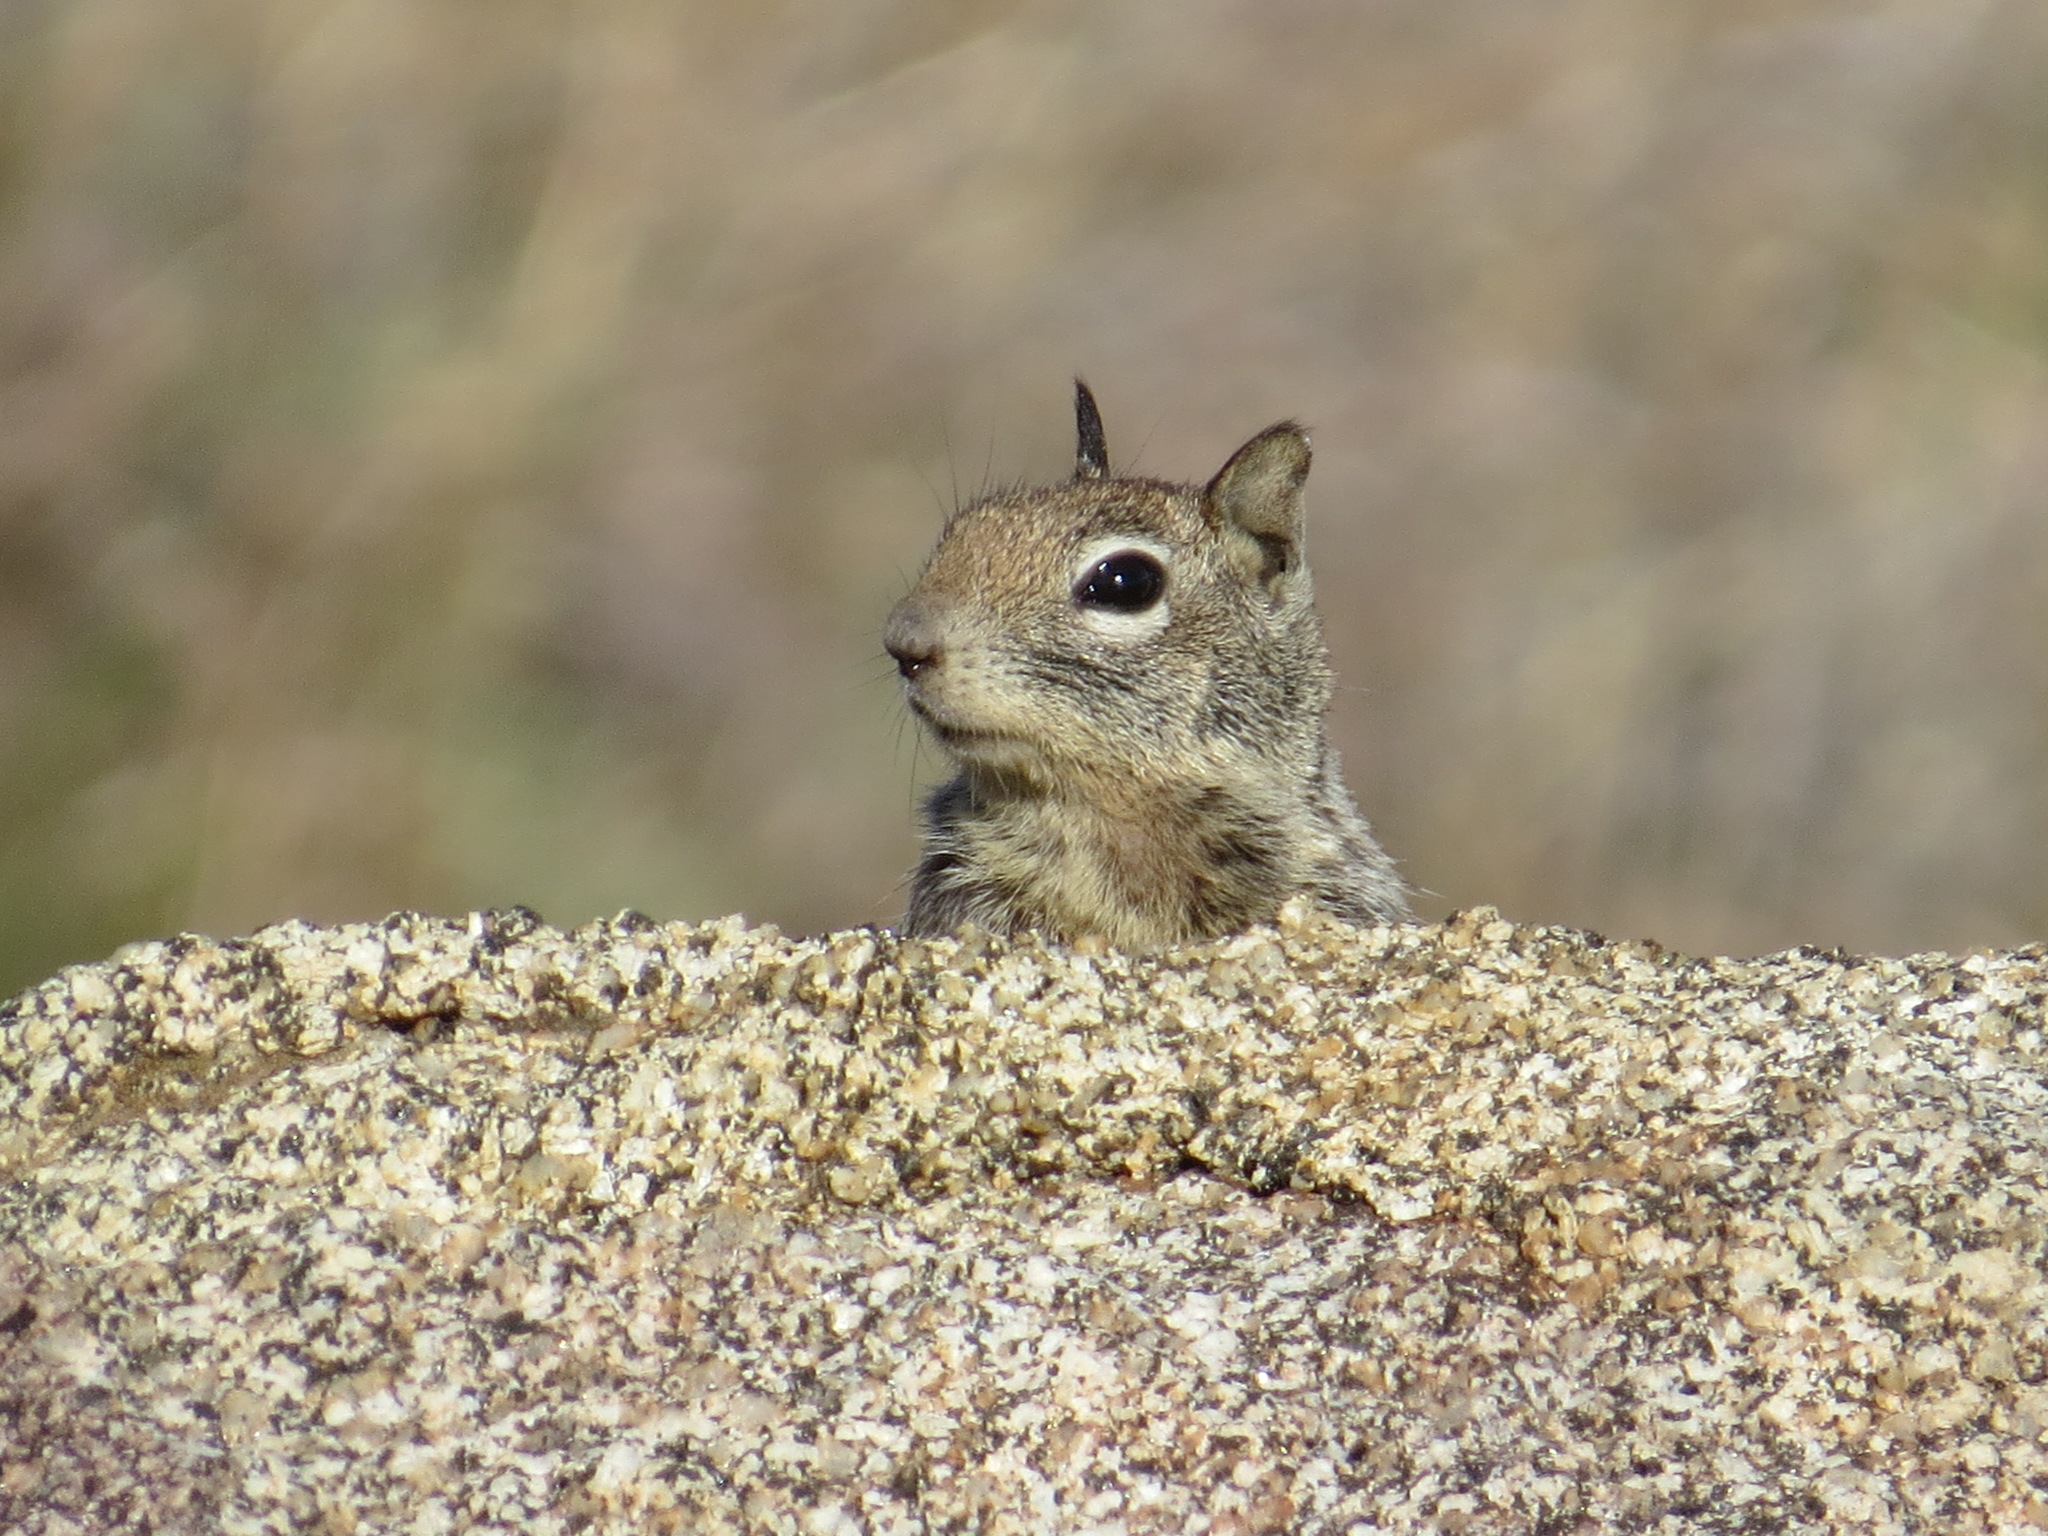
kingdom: Animalia
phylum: Chordata
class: Mammalia
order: Rodentia
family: Sciuridae
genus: Otospermophilus
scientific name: Otospermophilus beecheyi
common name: California ground squirrel
